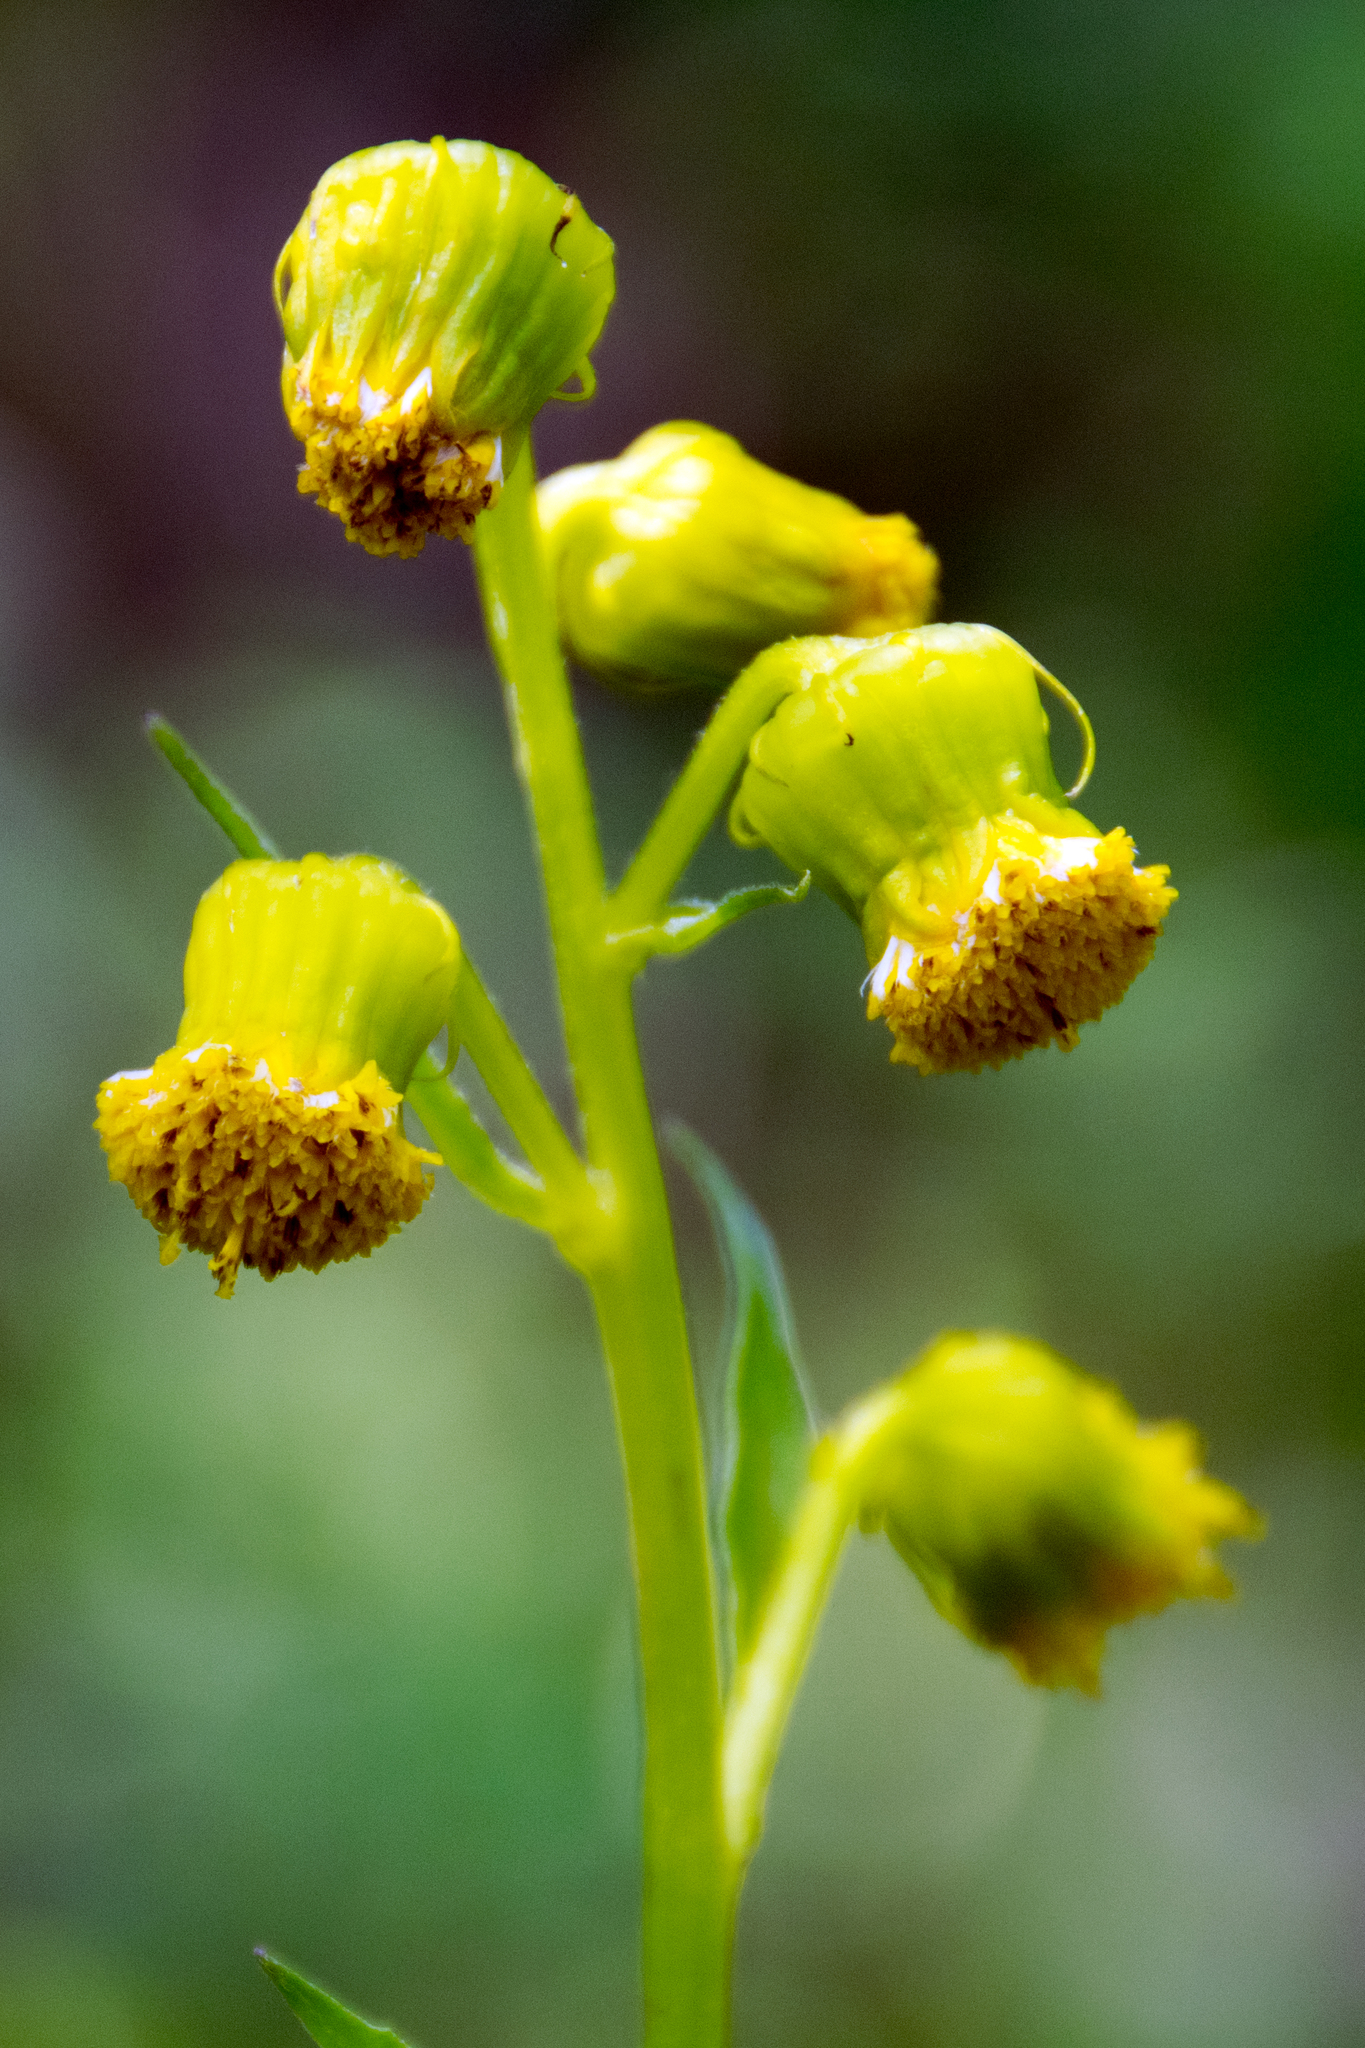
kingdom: Plantae
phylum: Tracheophyta
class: Magnoliopsida
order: Asterales
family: Asteraceae
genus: Senecio
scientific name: Senecio bigelovii
